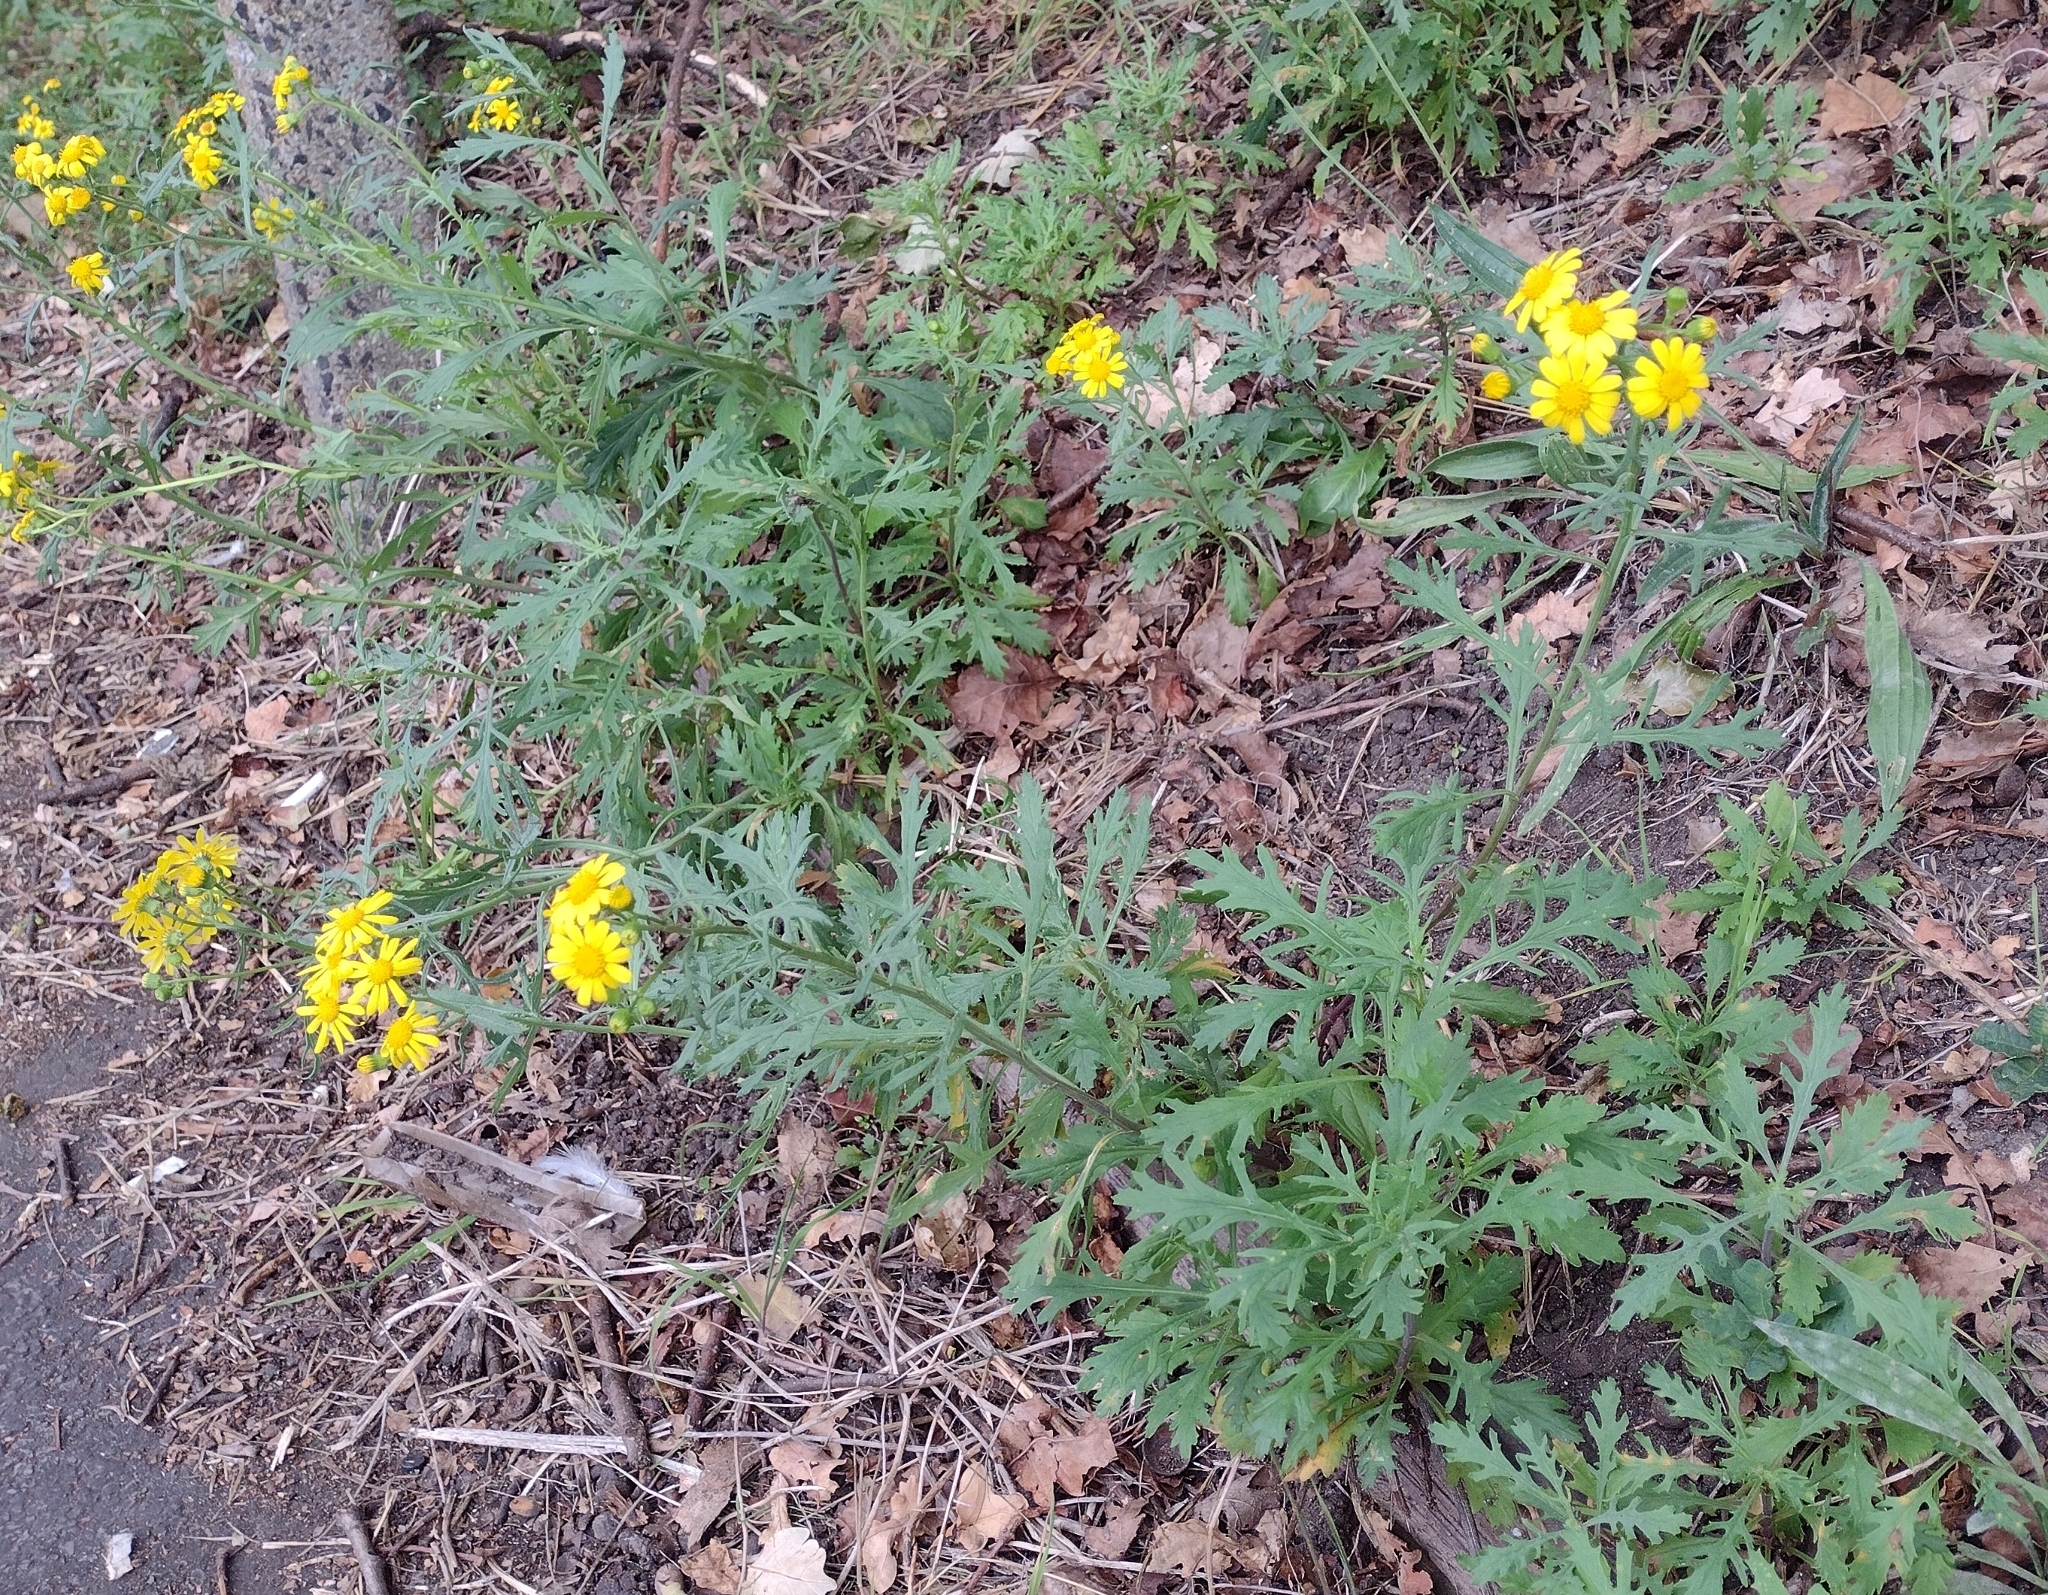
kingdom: Plantae
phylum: Tracheophyta
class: Magnoliopsida
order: Asterales
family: Asteraceae
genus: Senecio
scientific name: Senecio squalidus
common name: Oxford ragwort
